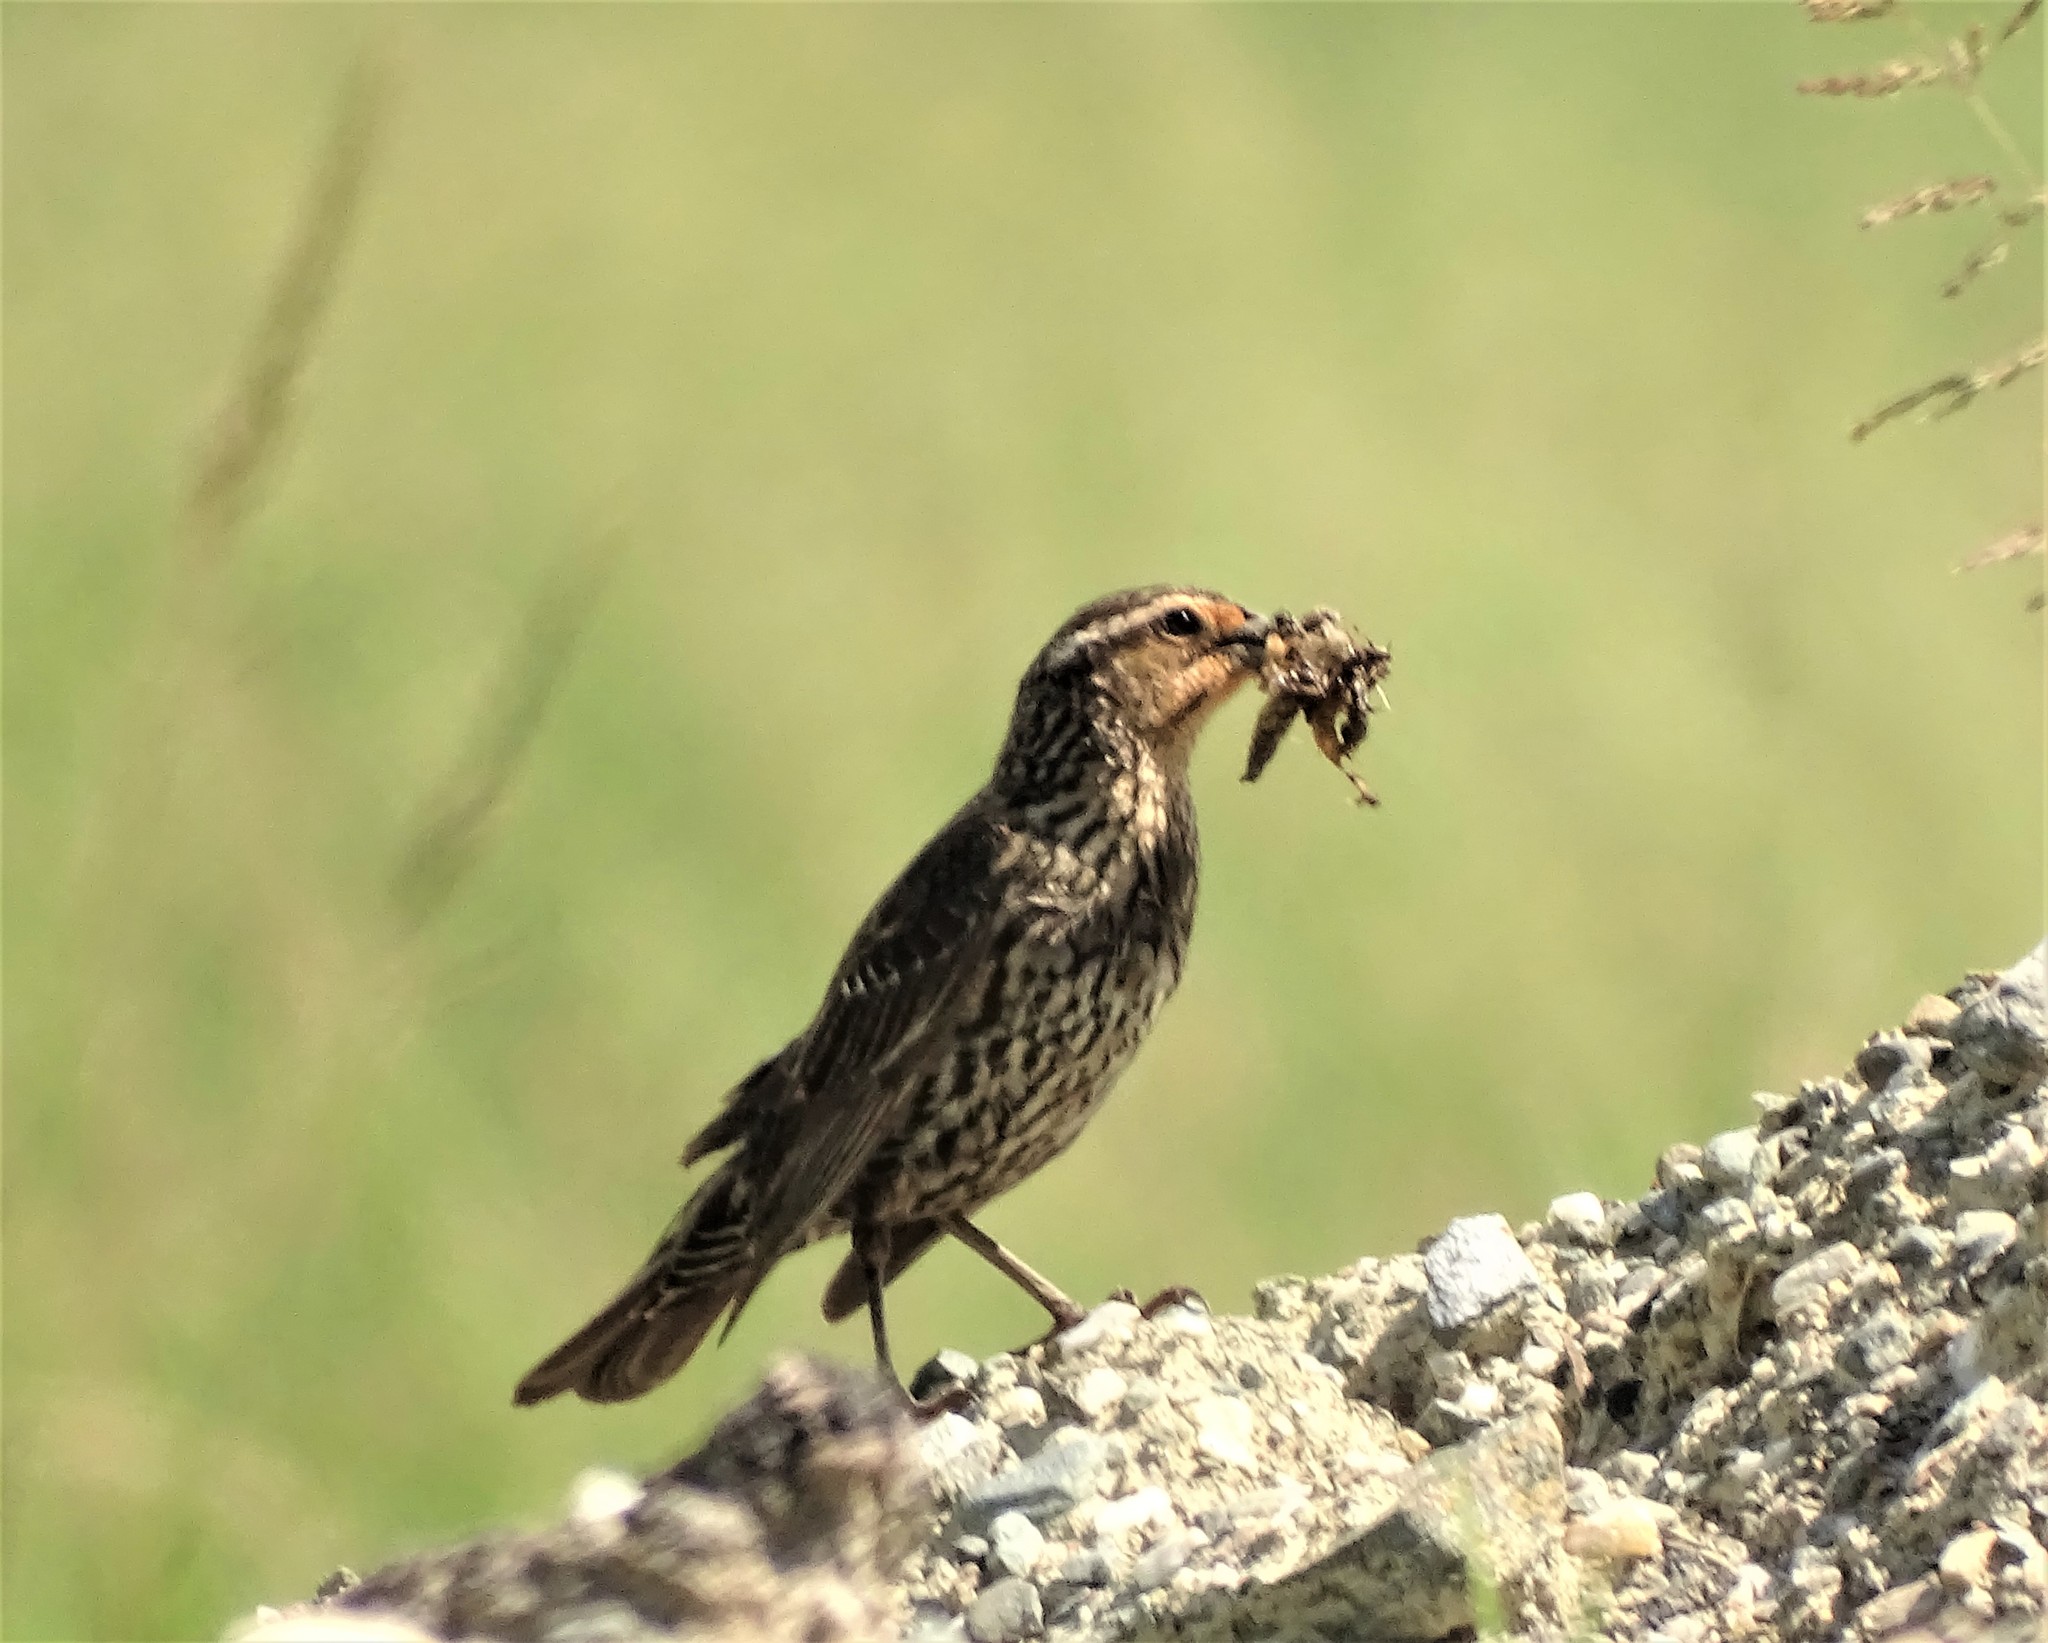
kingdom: Animalia
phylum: Chordata
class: Aves
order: Passeriformes
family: Icteridae
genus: Agelaius
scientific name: Agelaius phoeniceus
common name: Red-winged blackbird
